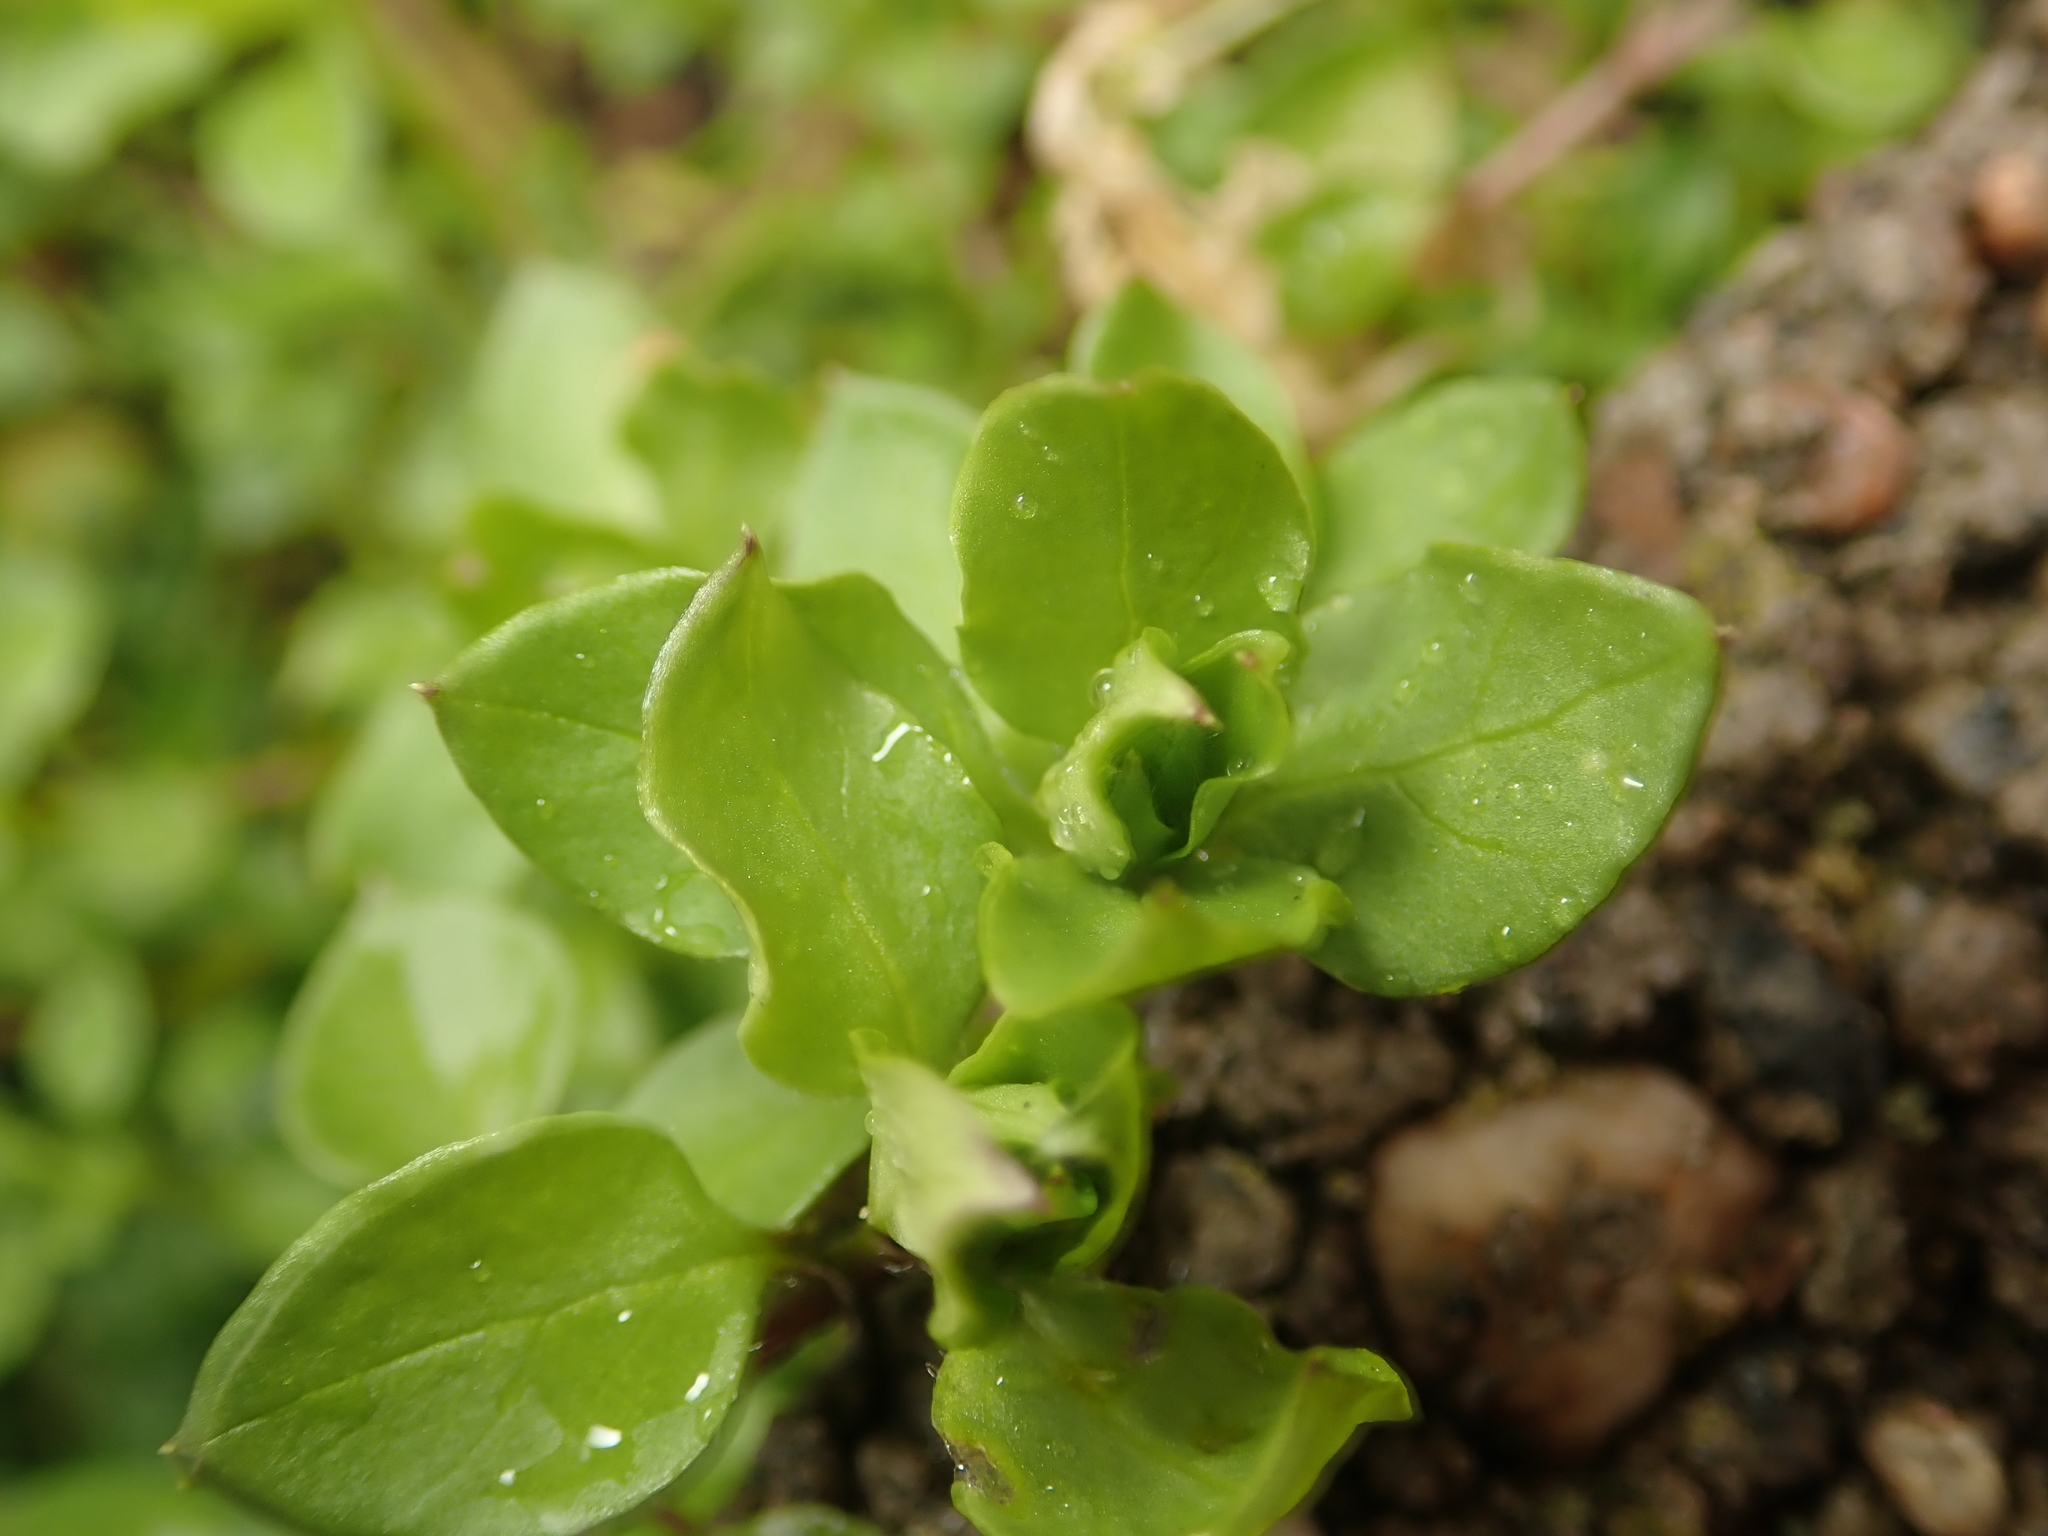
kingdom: Plantae
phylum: Tracheophyta
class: Magnoliopsida
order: Caryophyllales
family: Caryophyllaceae
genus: Stellaria
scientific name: Stellaria media
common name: Common chickweed
